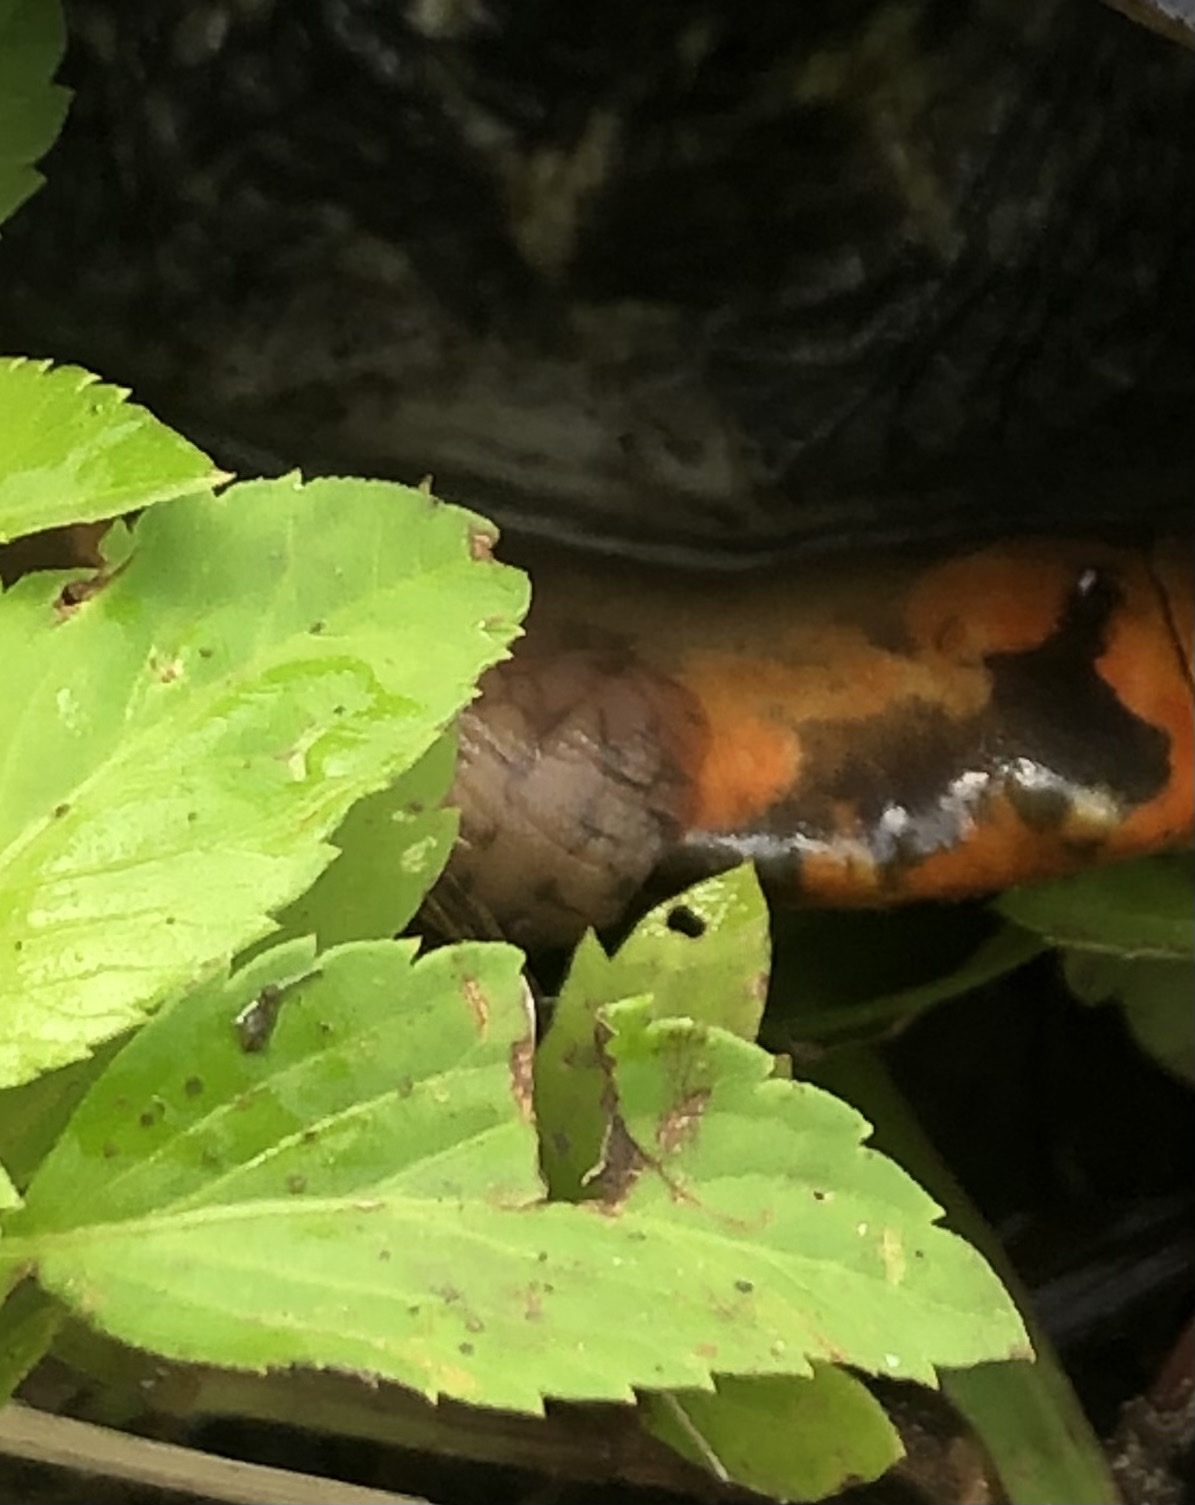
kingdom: Animalia
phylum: Annelida
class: Clitellata
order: Rhynchobdellida
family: Glossiphoniidae
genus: Placobdella
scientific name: Placobdella parasitica
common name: Smooth turtle leech
